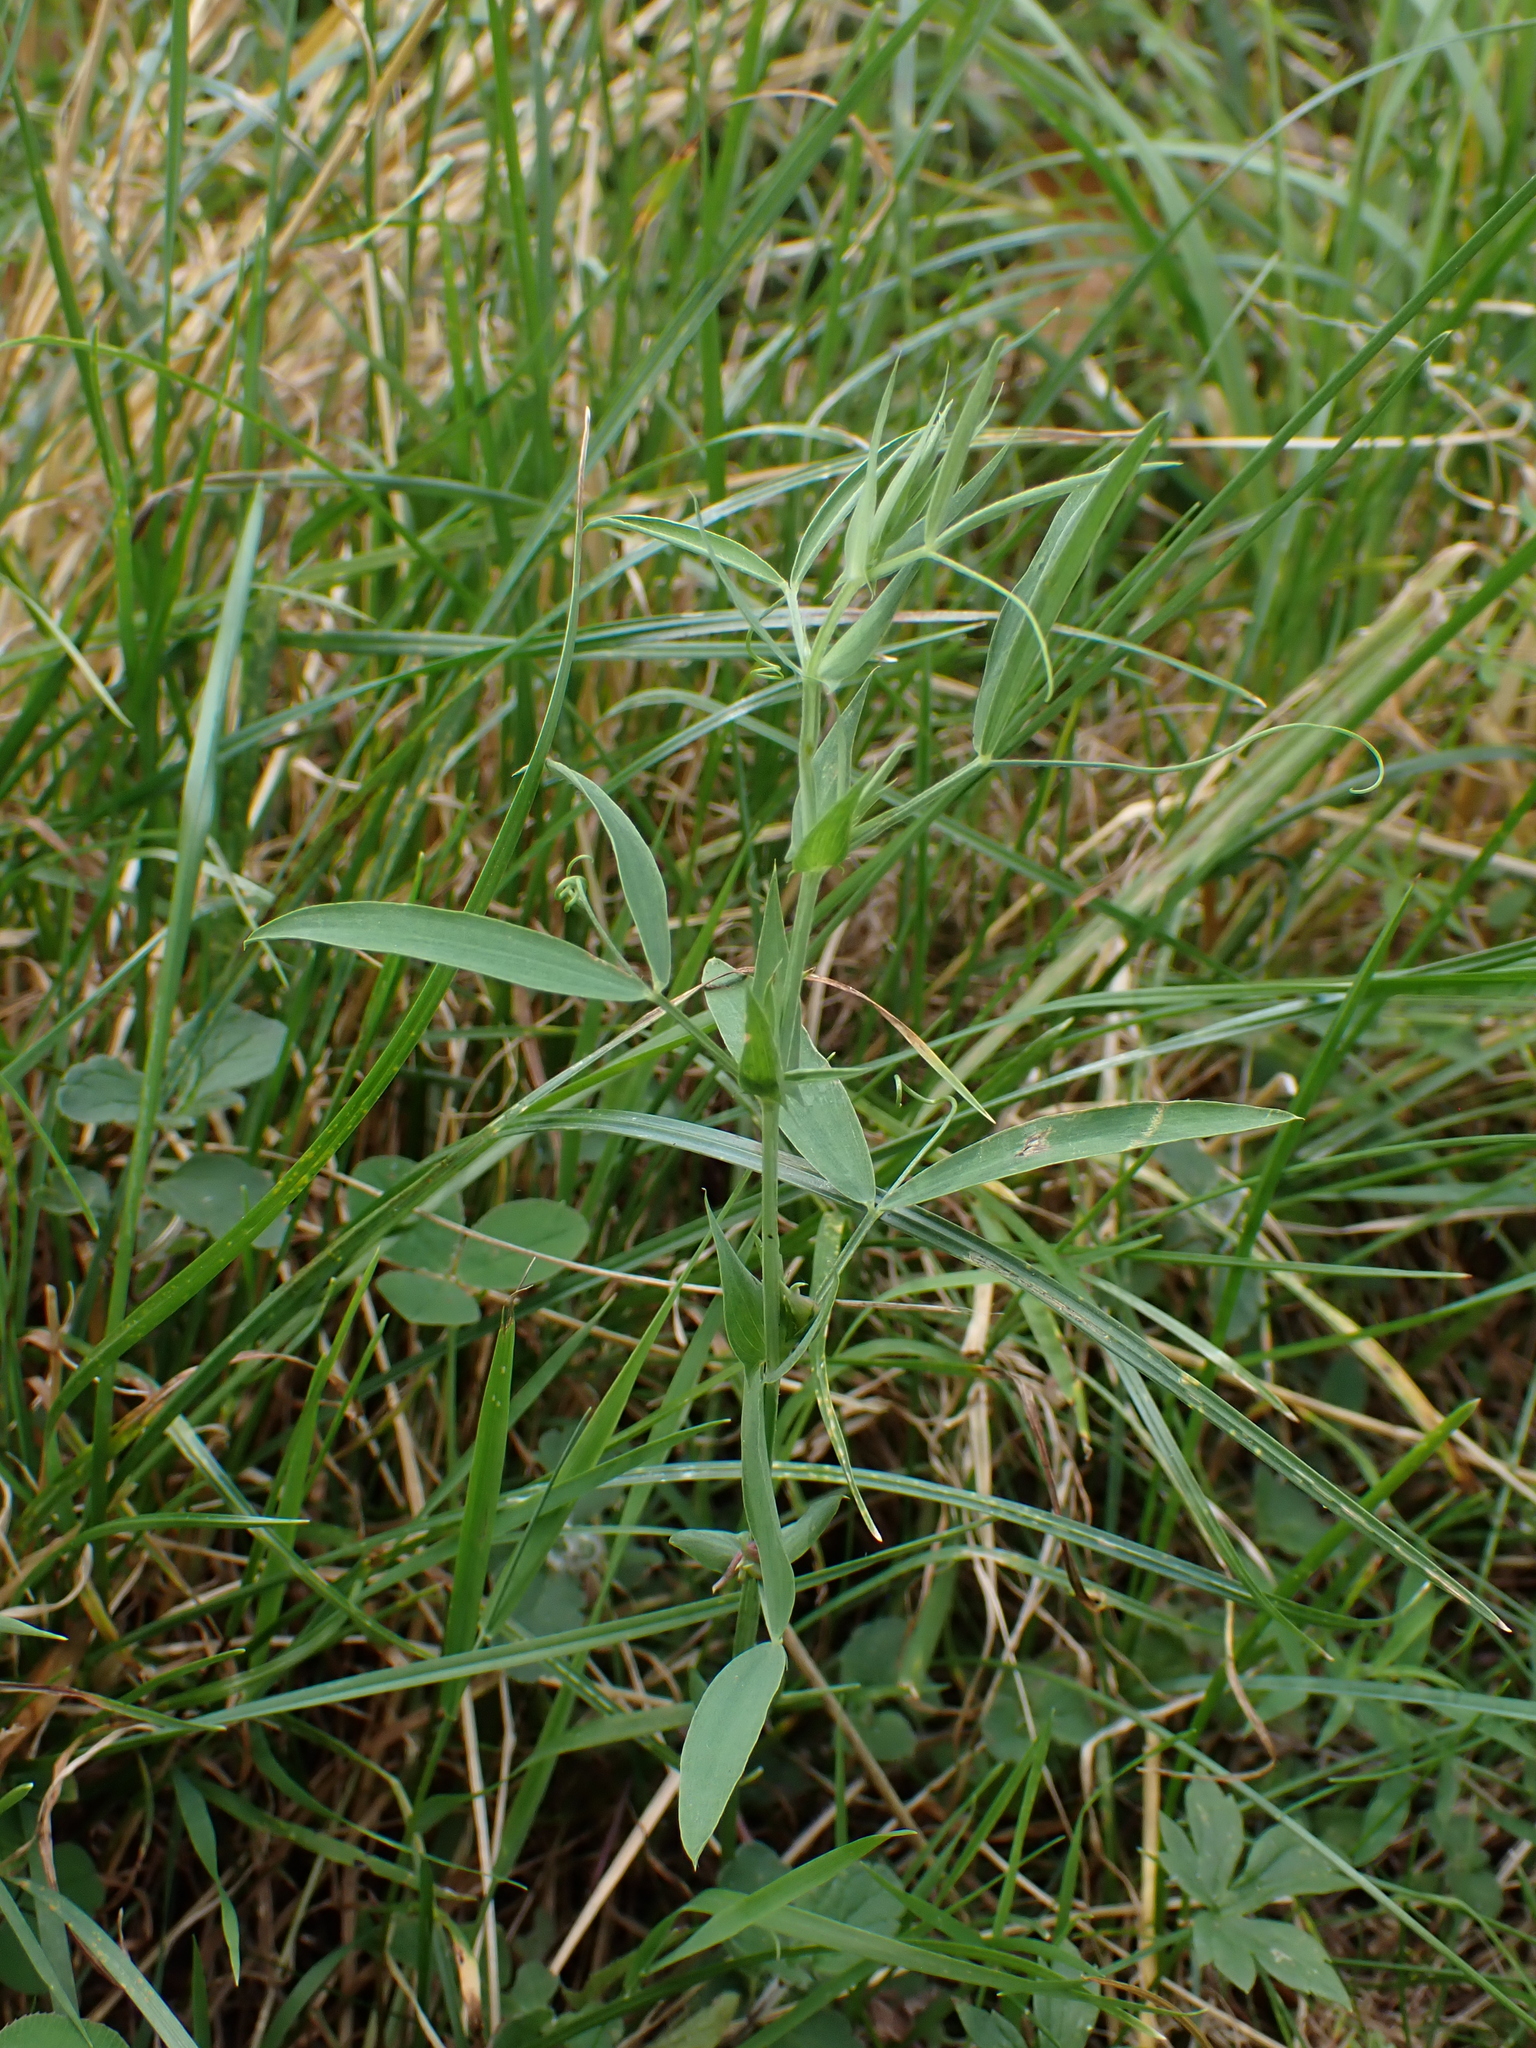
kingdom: Plantae
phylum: Tracheophyta
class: Magnoliopsida
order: Fabales
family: Fabaceae
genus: Lathyrus
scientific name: Lathyrus pratensis
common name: Meadow vetchling
